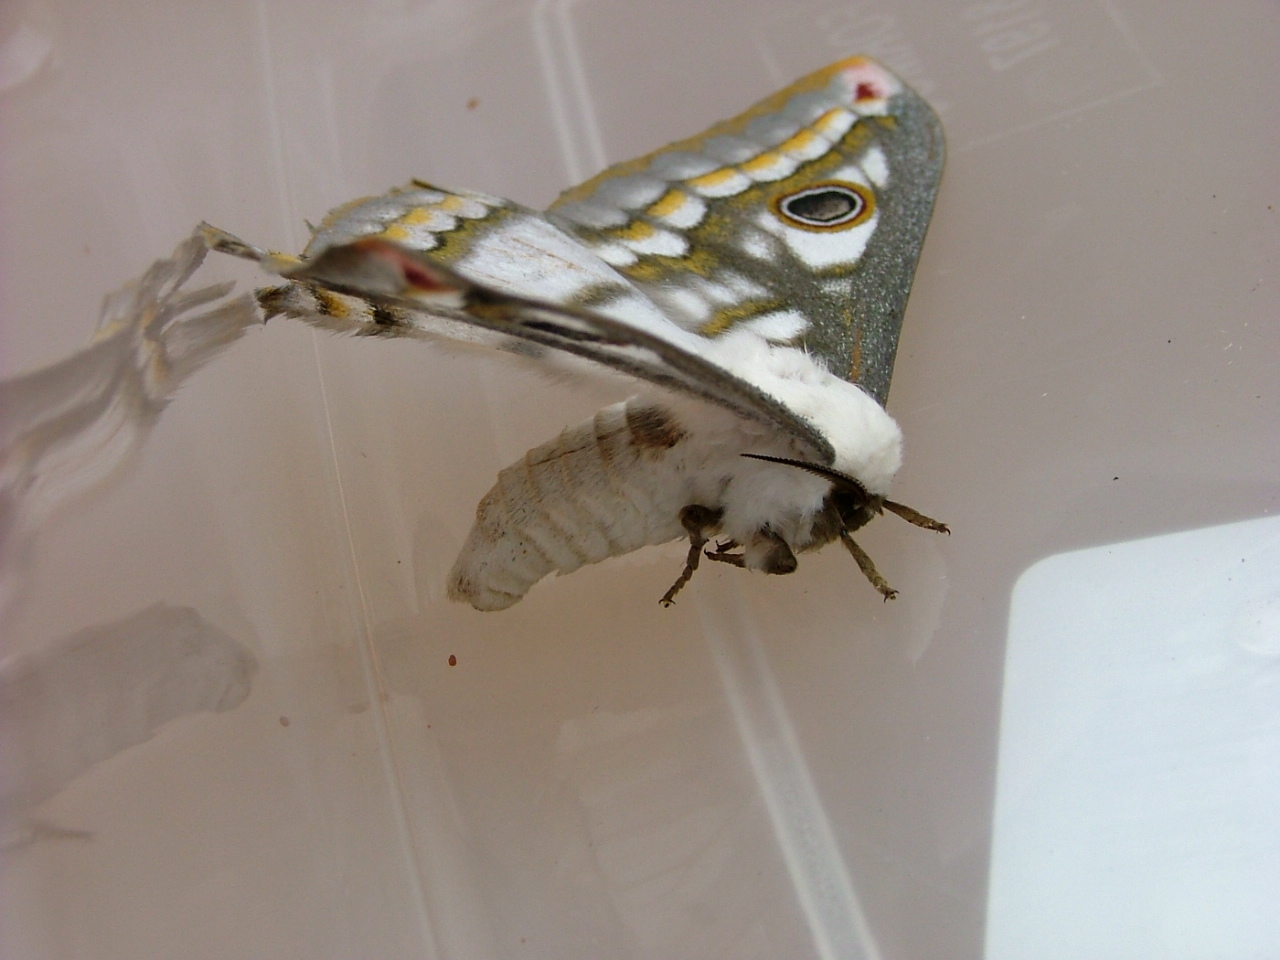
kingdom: Animalia
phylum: Arthropoda
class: Insecta
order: Lepidoptera
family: Saturniidae
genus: Heniocha
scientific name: Heniocha marnois
